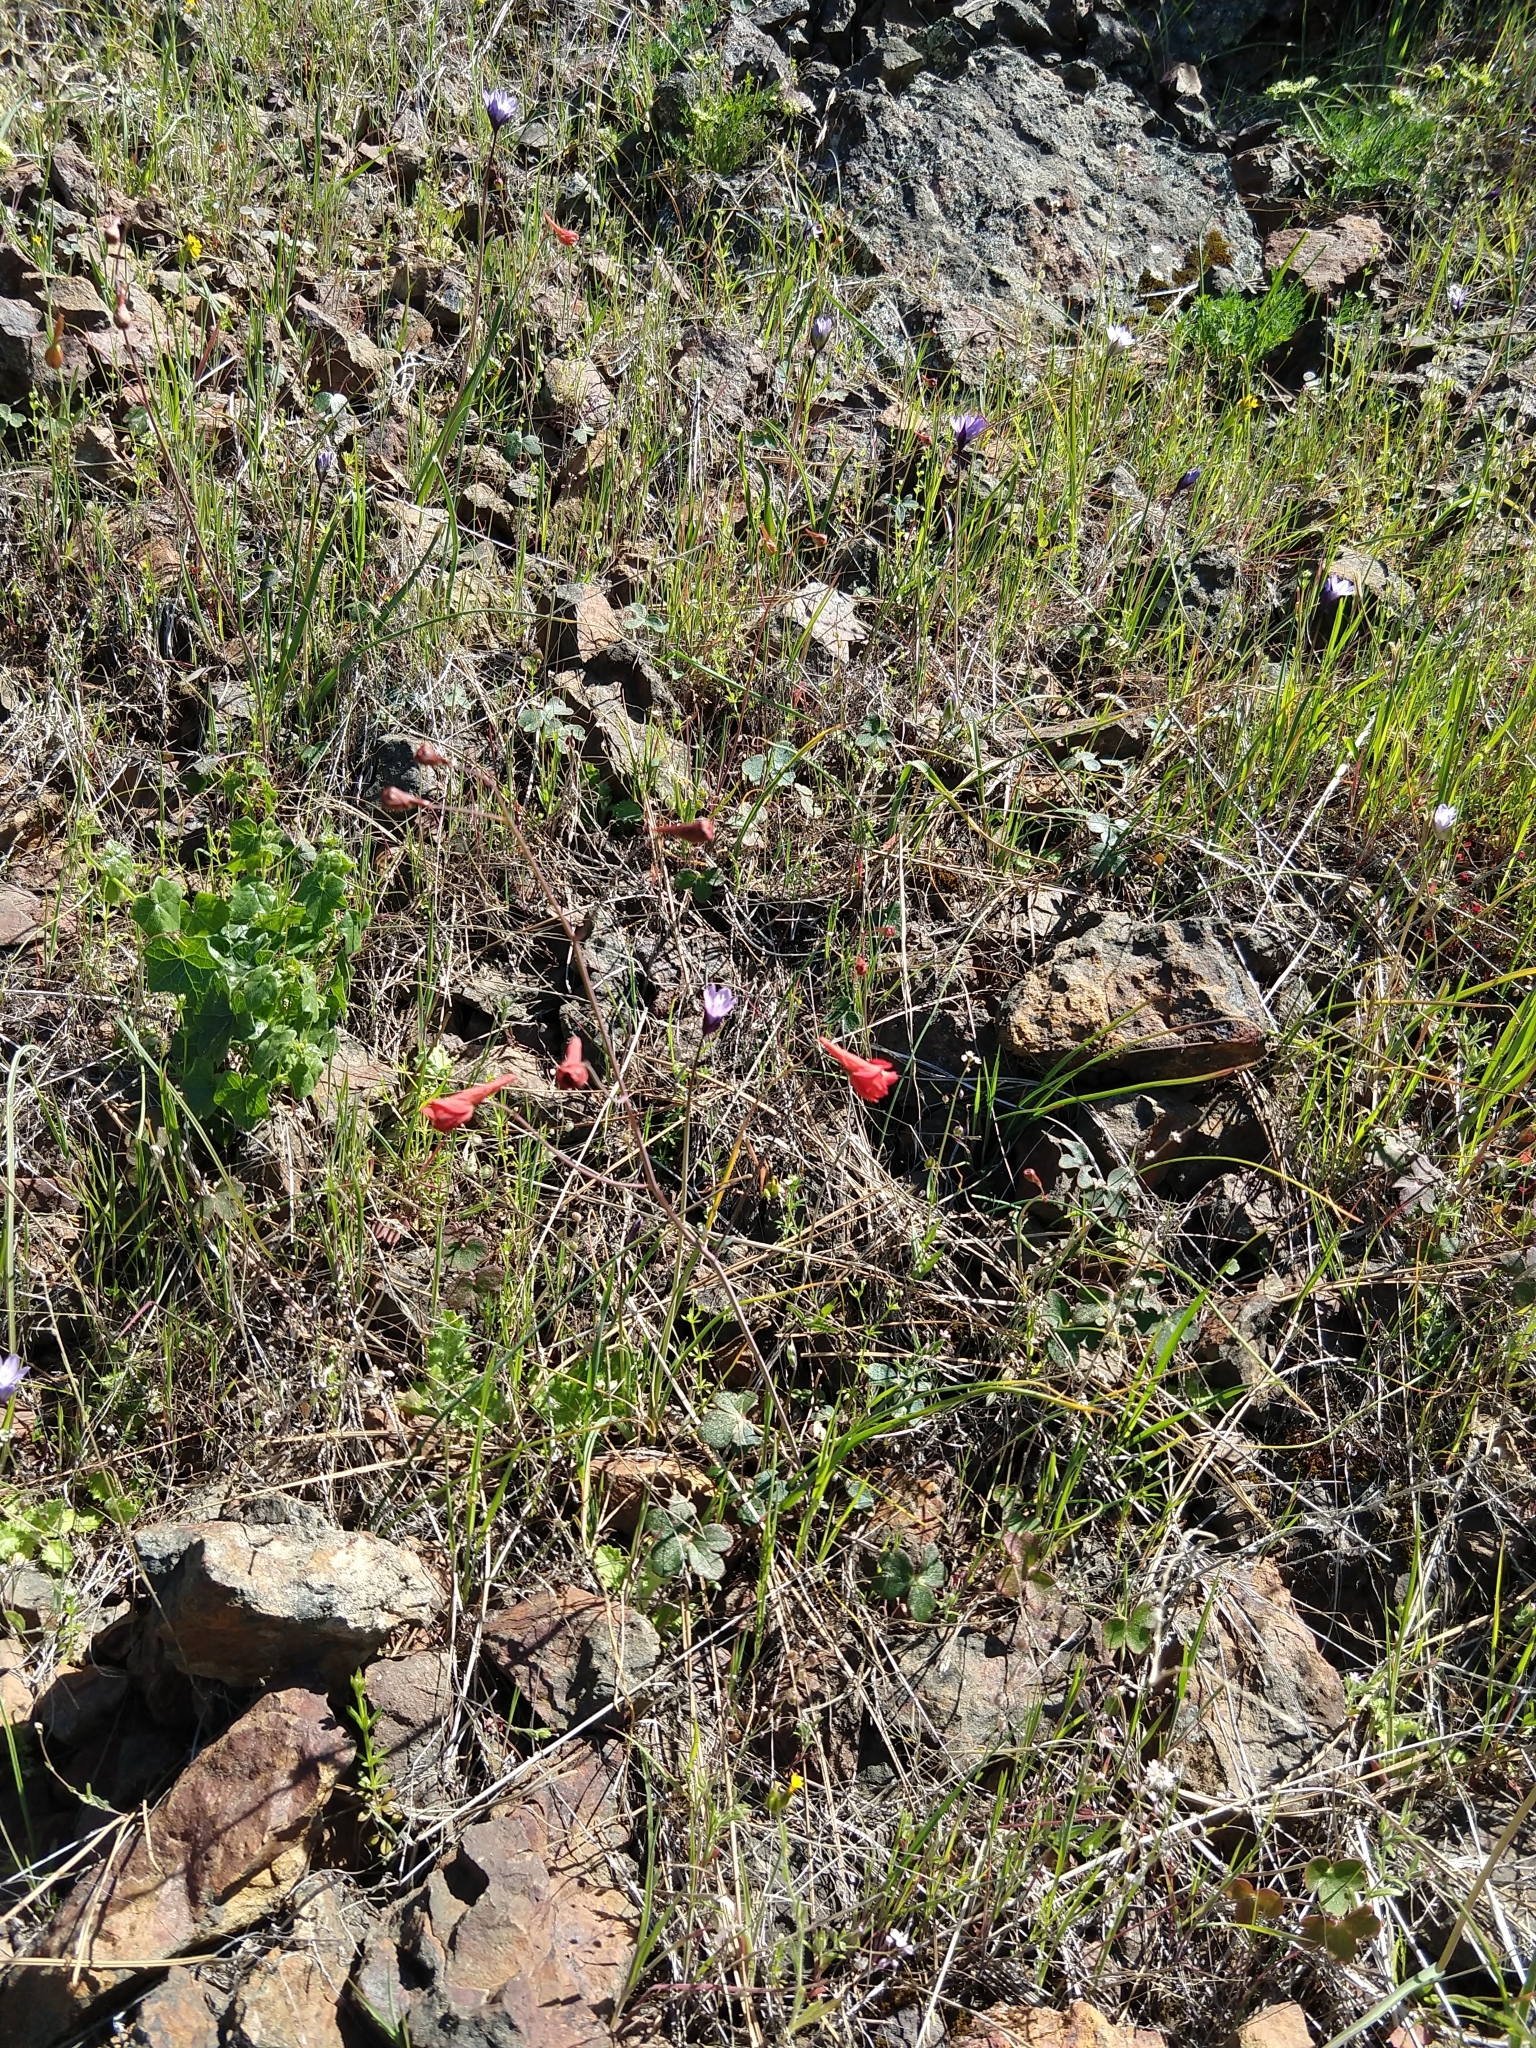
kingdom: Plantae
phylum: Tracheophyta
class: Magnoliopsida
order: Ranunculales
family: Ranunculaceae
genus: Delphinium
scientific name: Delphinium nudicaule
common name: Red larkspur
